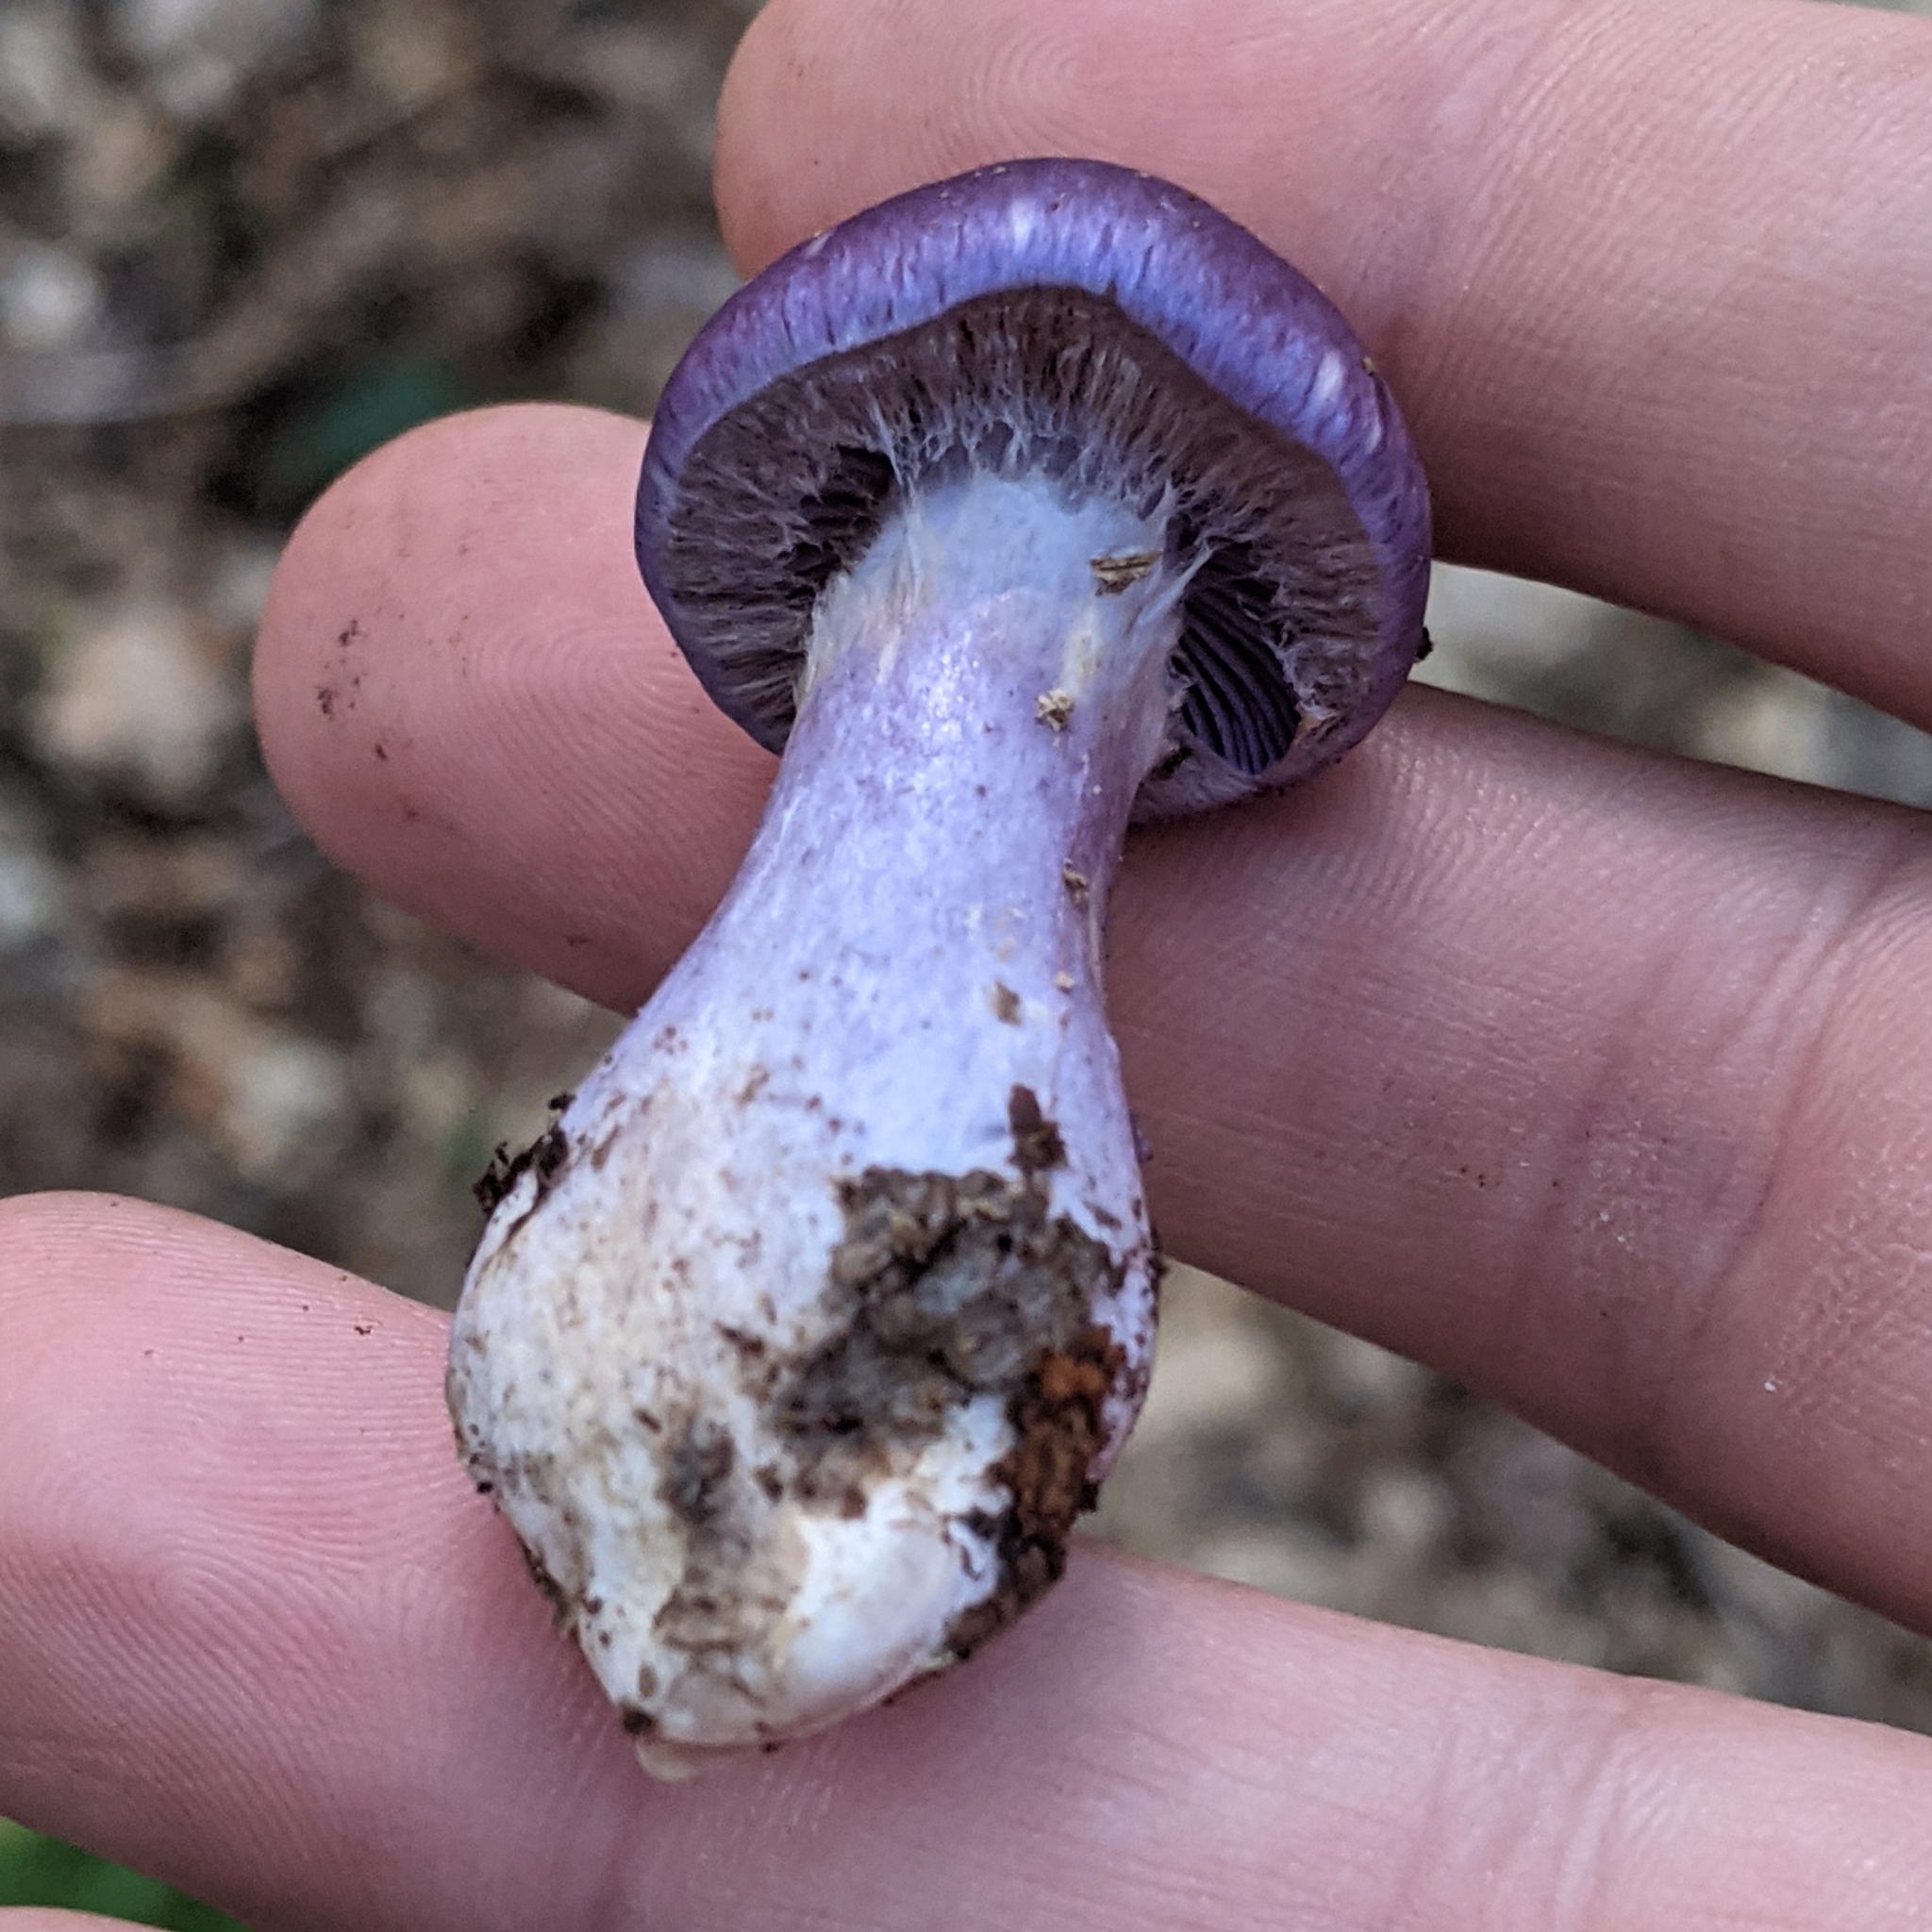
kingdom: Fungi
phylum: Basidiomycota
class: Agaricomycetes
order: Agaricales
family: Cortinariaceae
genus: Cortinarius
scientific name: Cortinarius iodes
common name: Viscid violet cort
